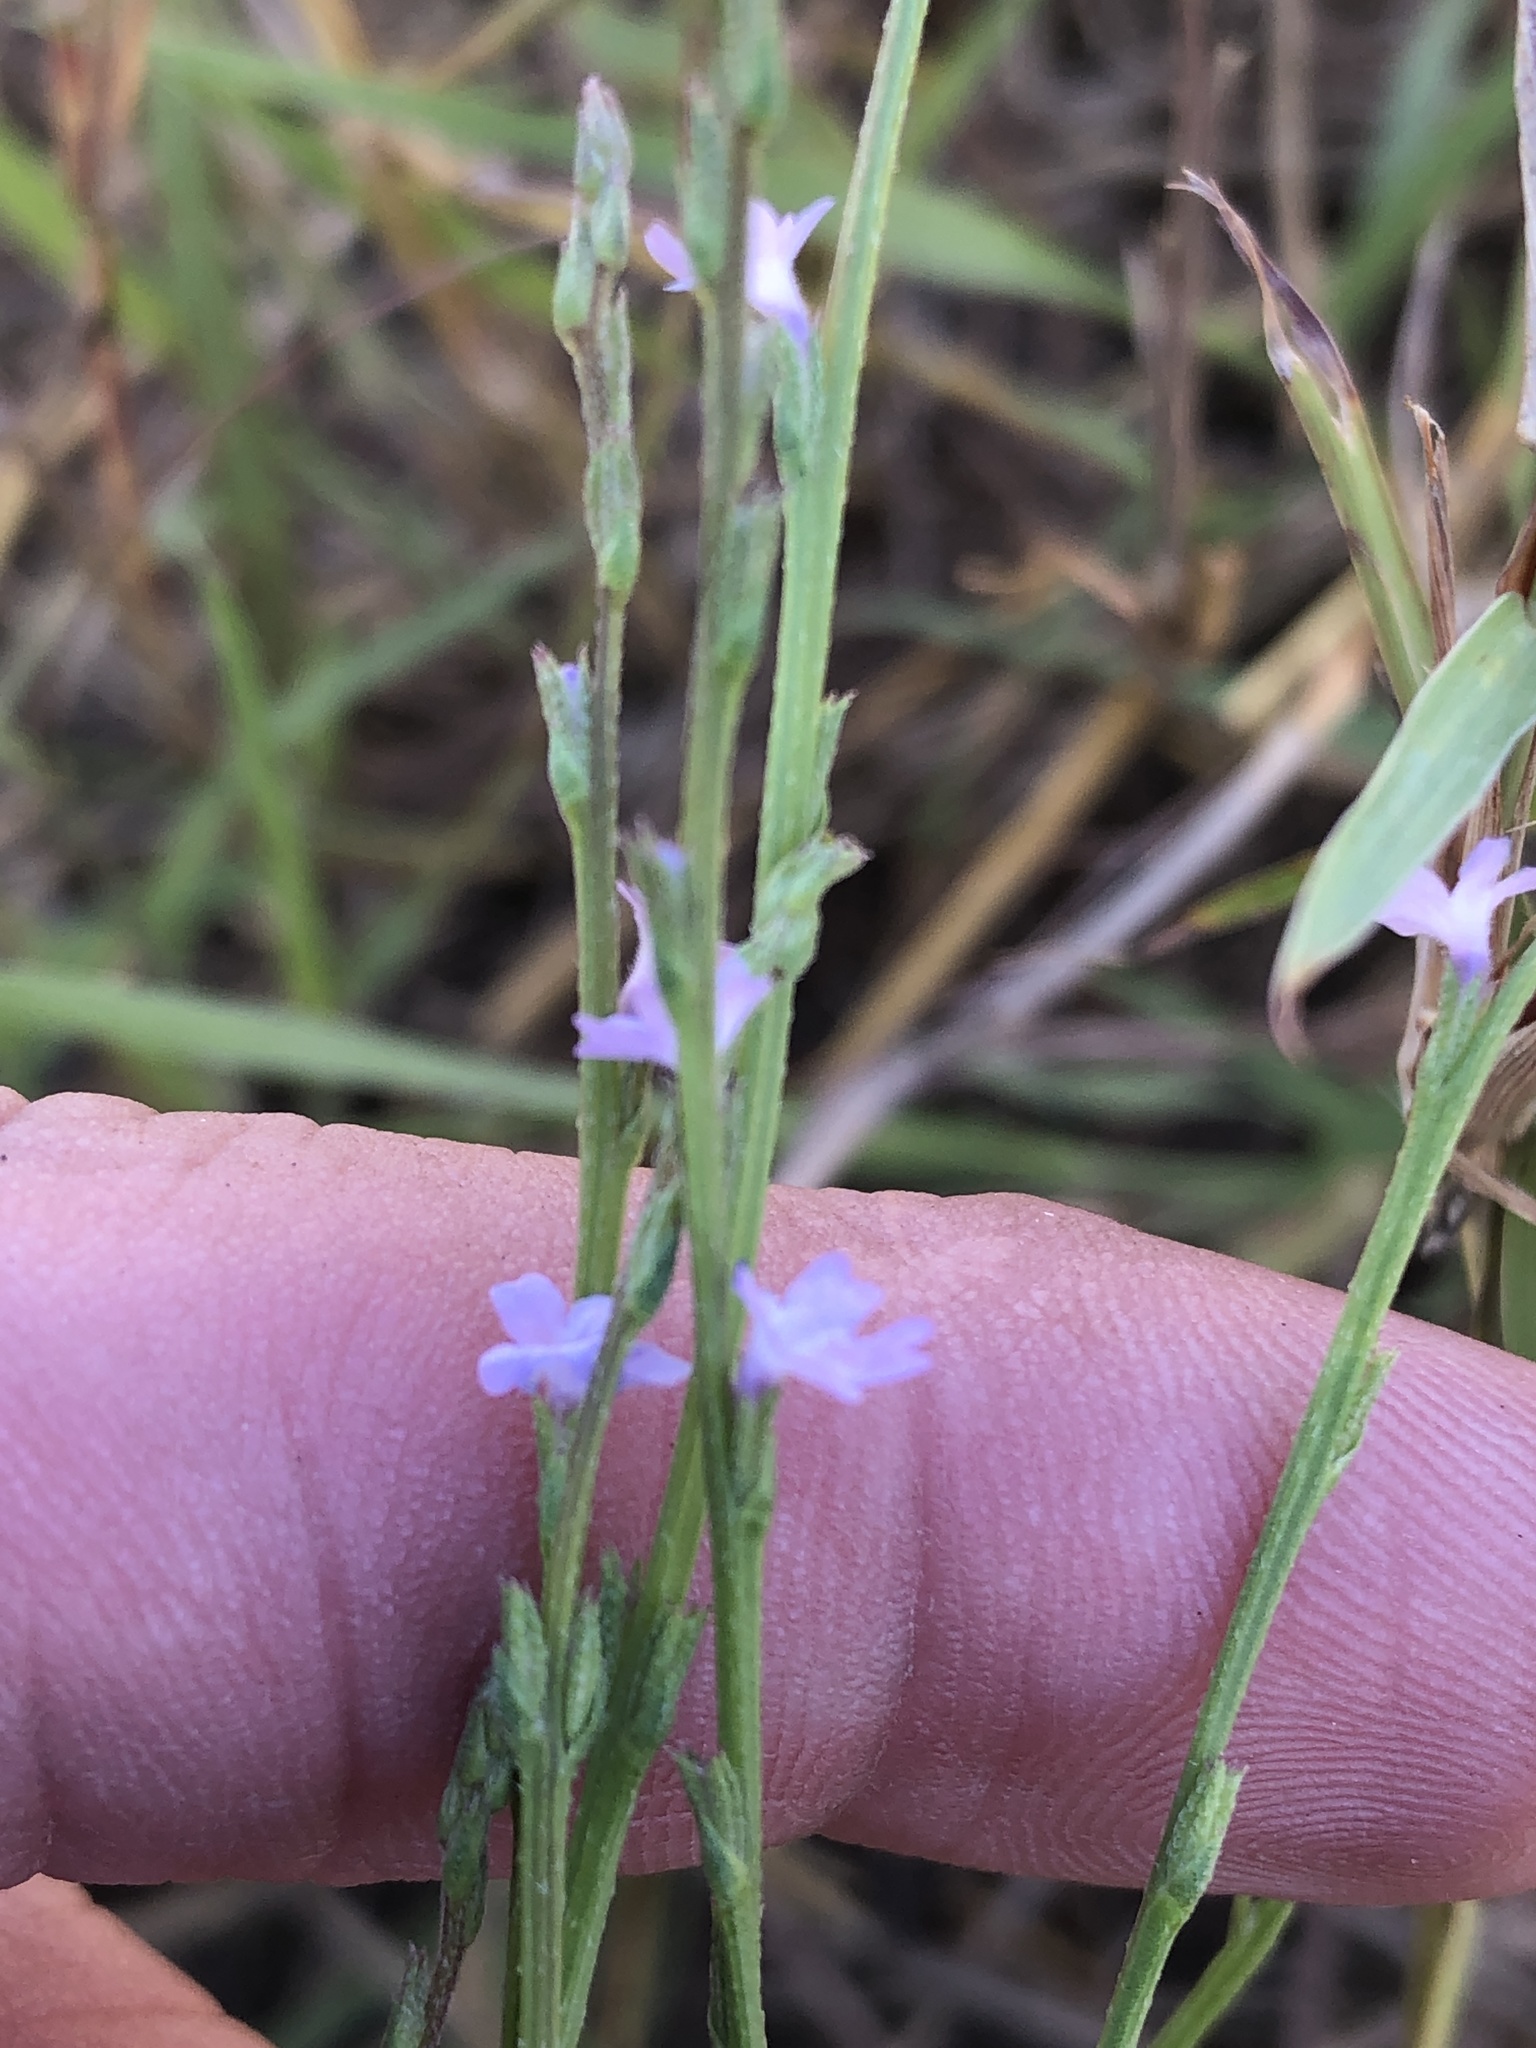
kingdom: Plantae
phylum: Tracheophyta
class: Magnoliopsida
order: Lamiales
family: Verbenaceae
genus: Verbena
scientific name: Verbena halei
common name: Texas vervain
